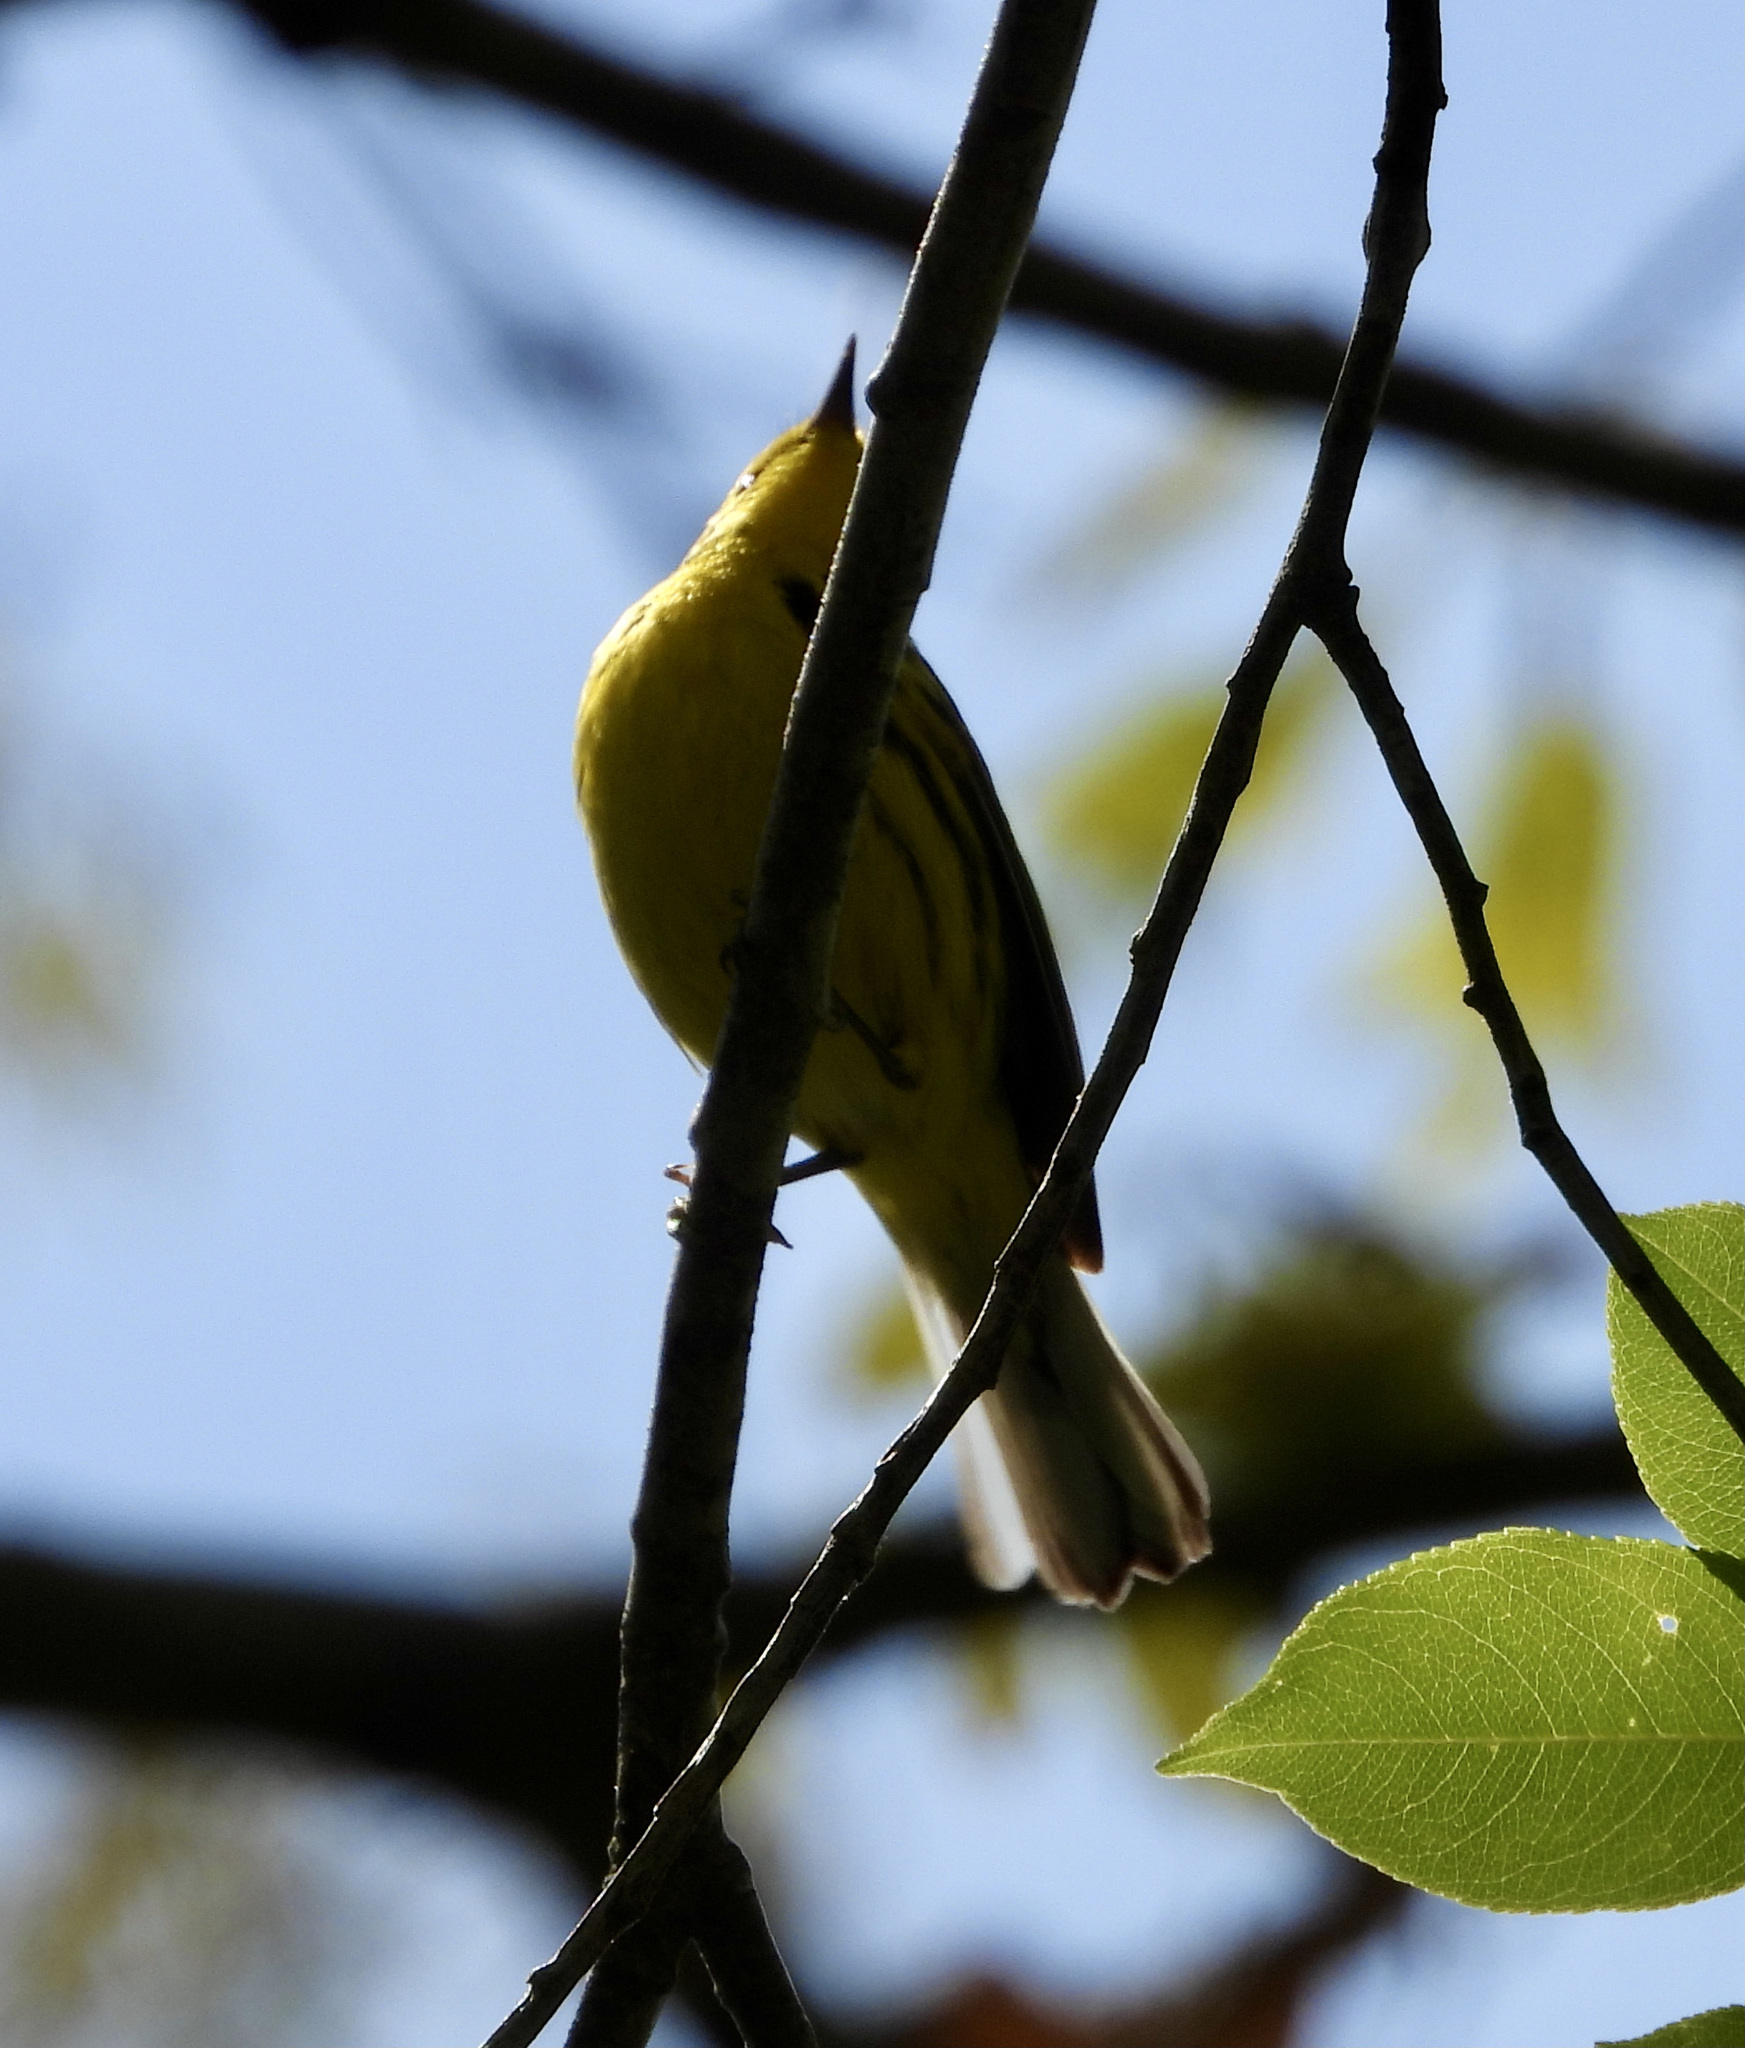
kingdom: Animalia
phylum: Chordata
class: Aves
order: Passeriformes
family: Parulidae
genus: Setophaga
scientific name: Setophaga discolor
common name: Prairie warbler
